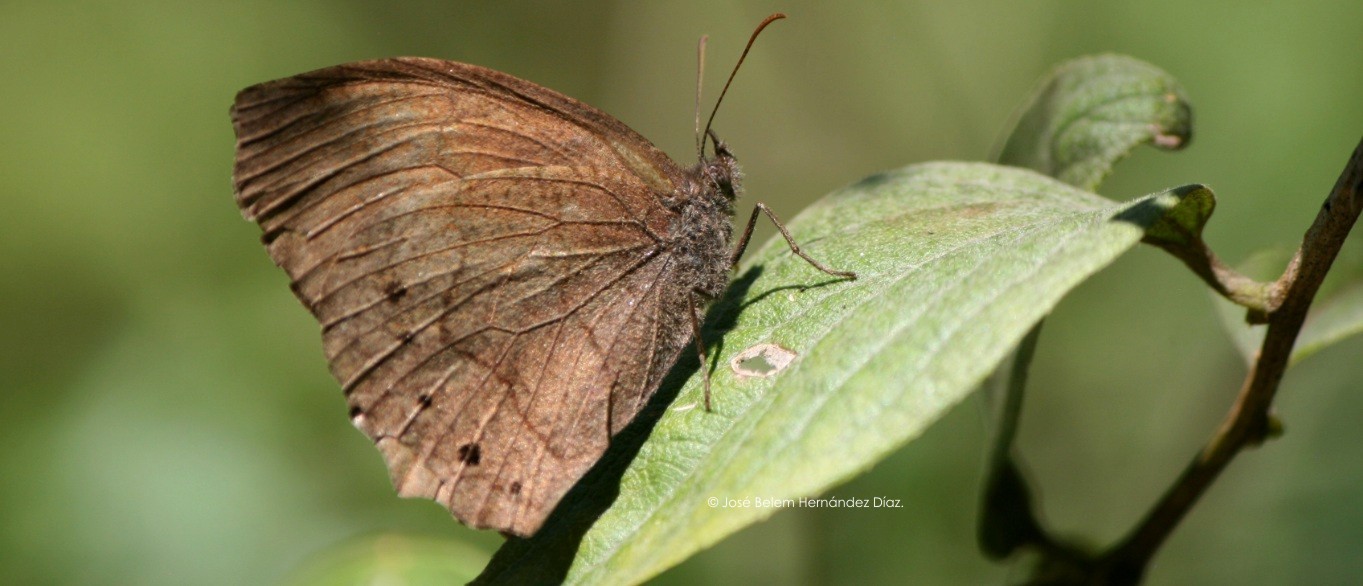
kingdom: Animalia
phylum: Arthropoda
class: Insecta
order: Lepidoptera
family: Nymphalidae
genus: Pindis
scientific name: Pindis squamistriga
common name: Variable satyr
